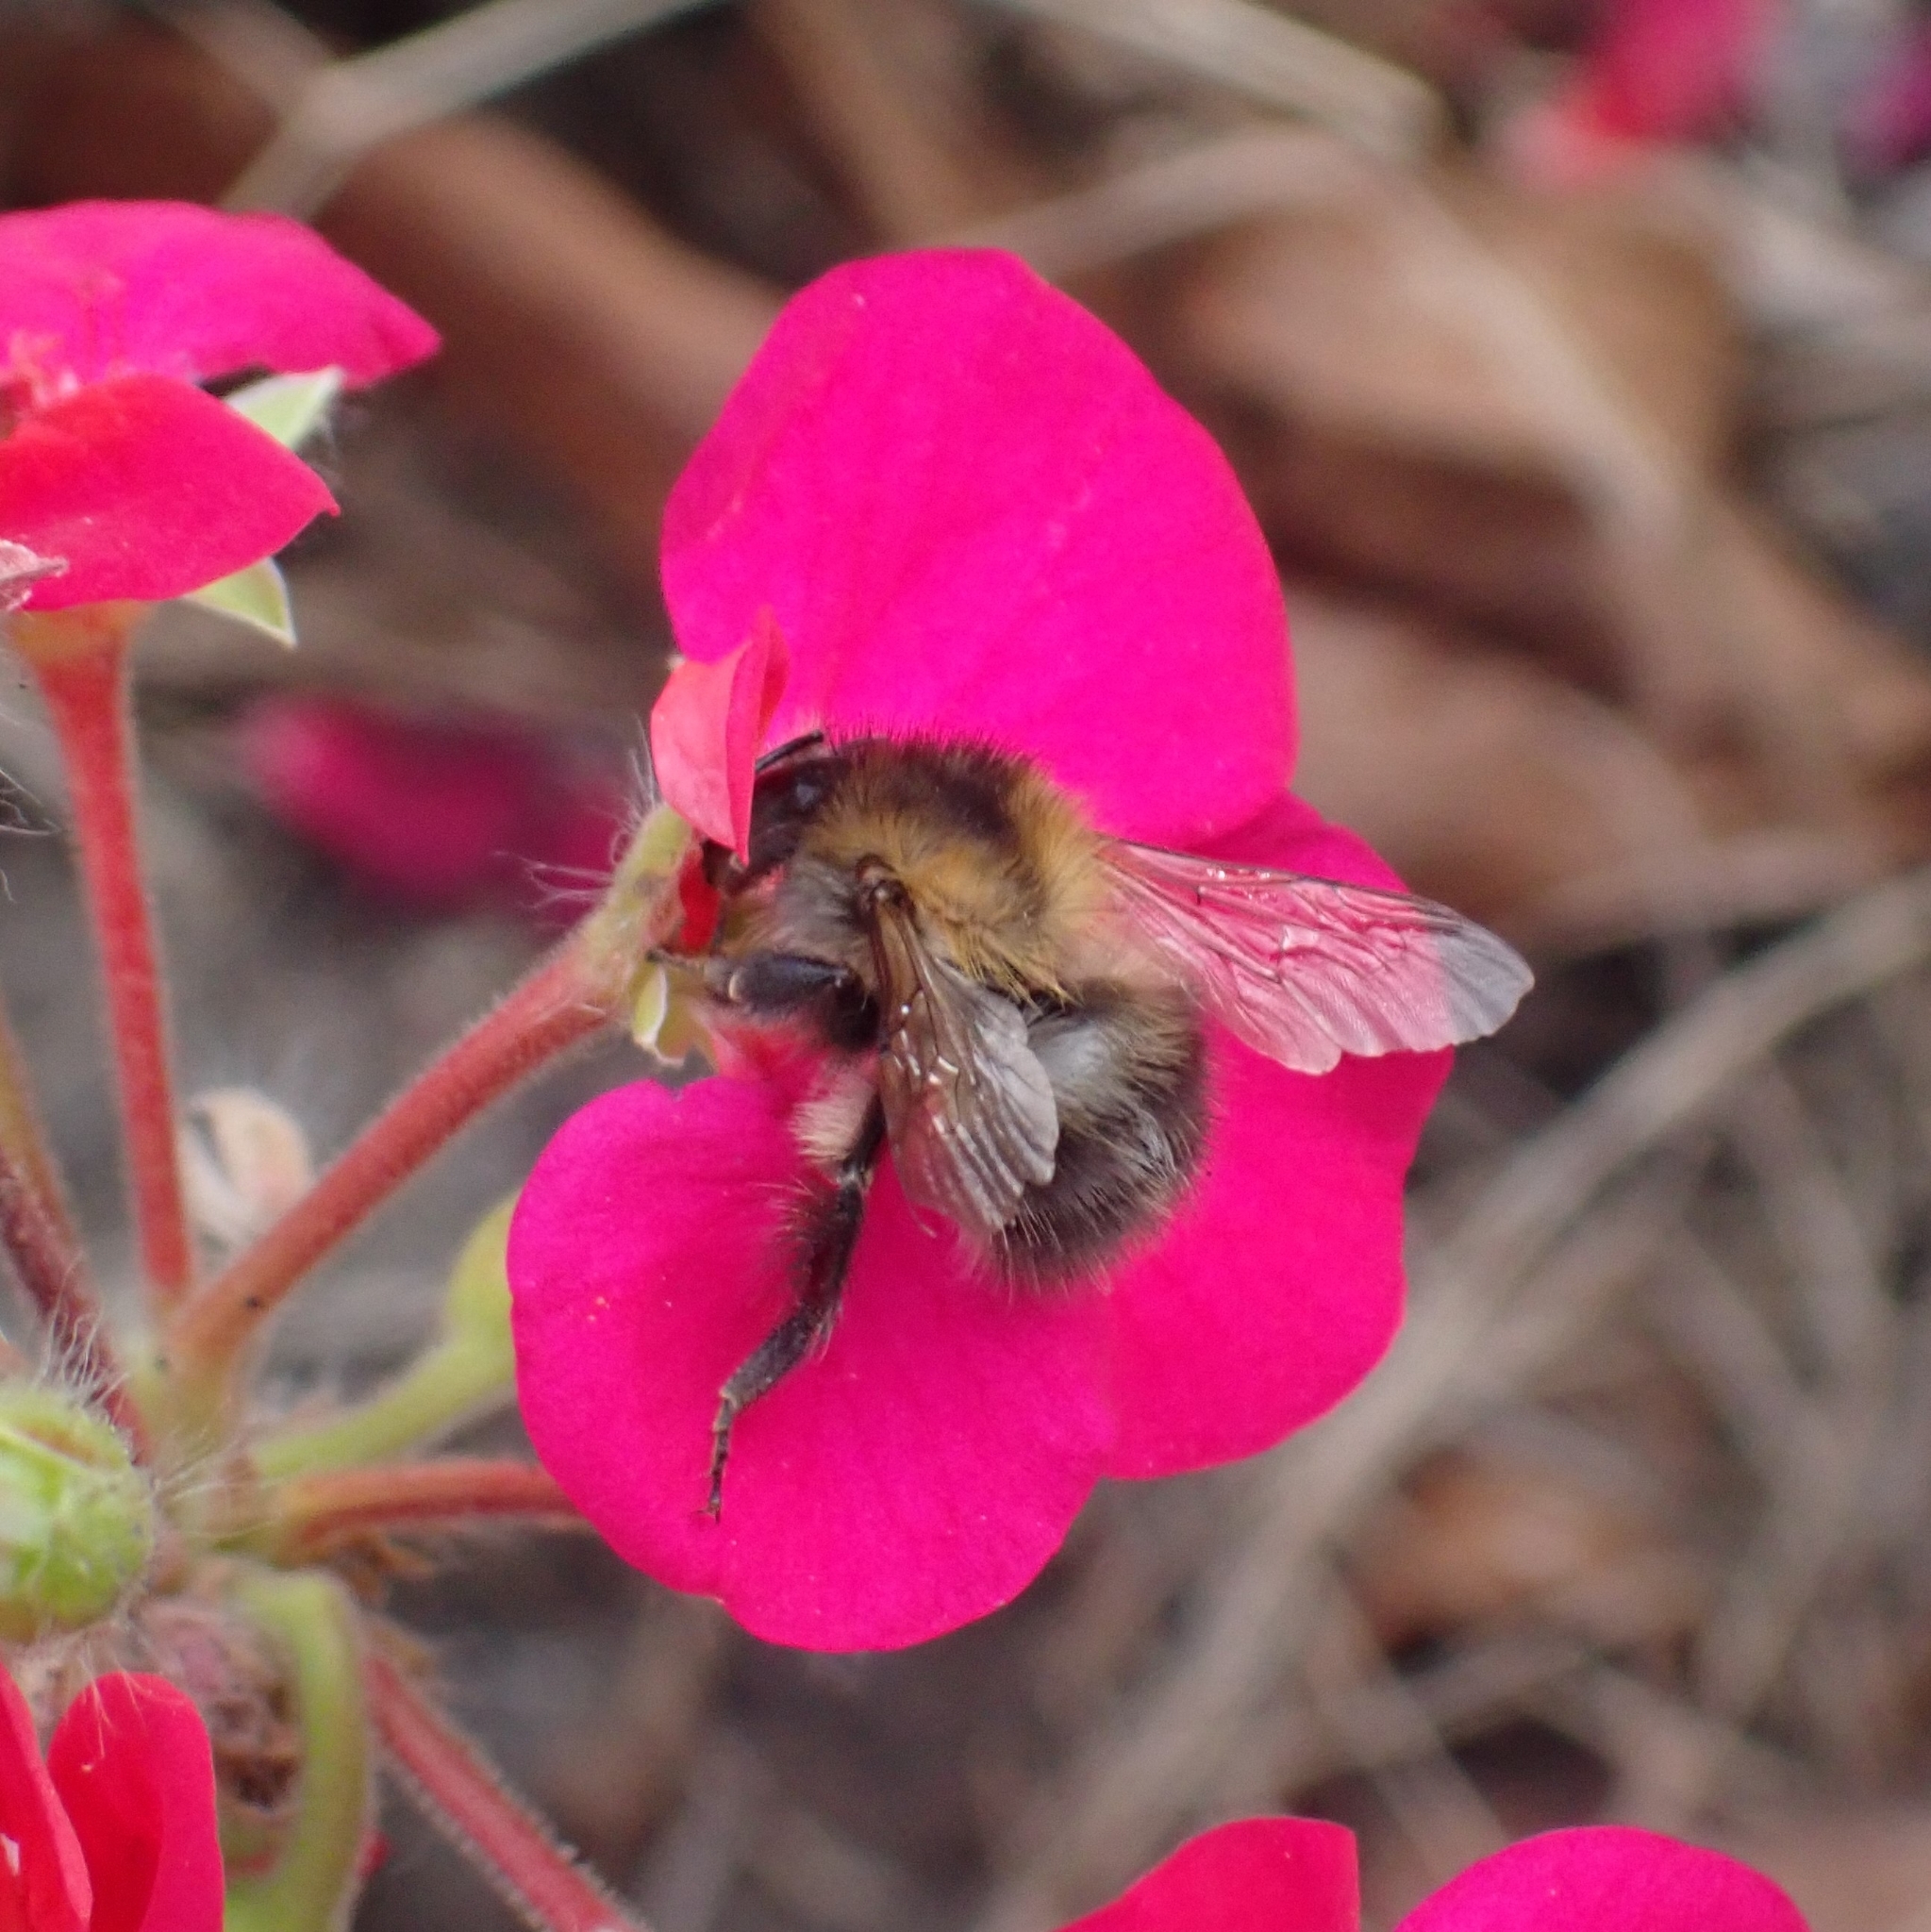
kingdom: Animalia
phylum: Arthropoda
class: Insecta
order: Hymenoptera
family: Apidae
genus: Bombus
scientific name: Bombus pascuorum
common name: Common carder bee
